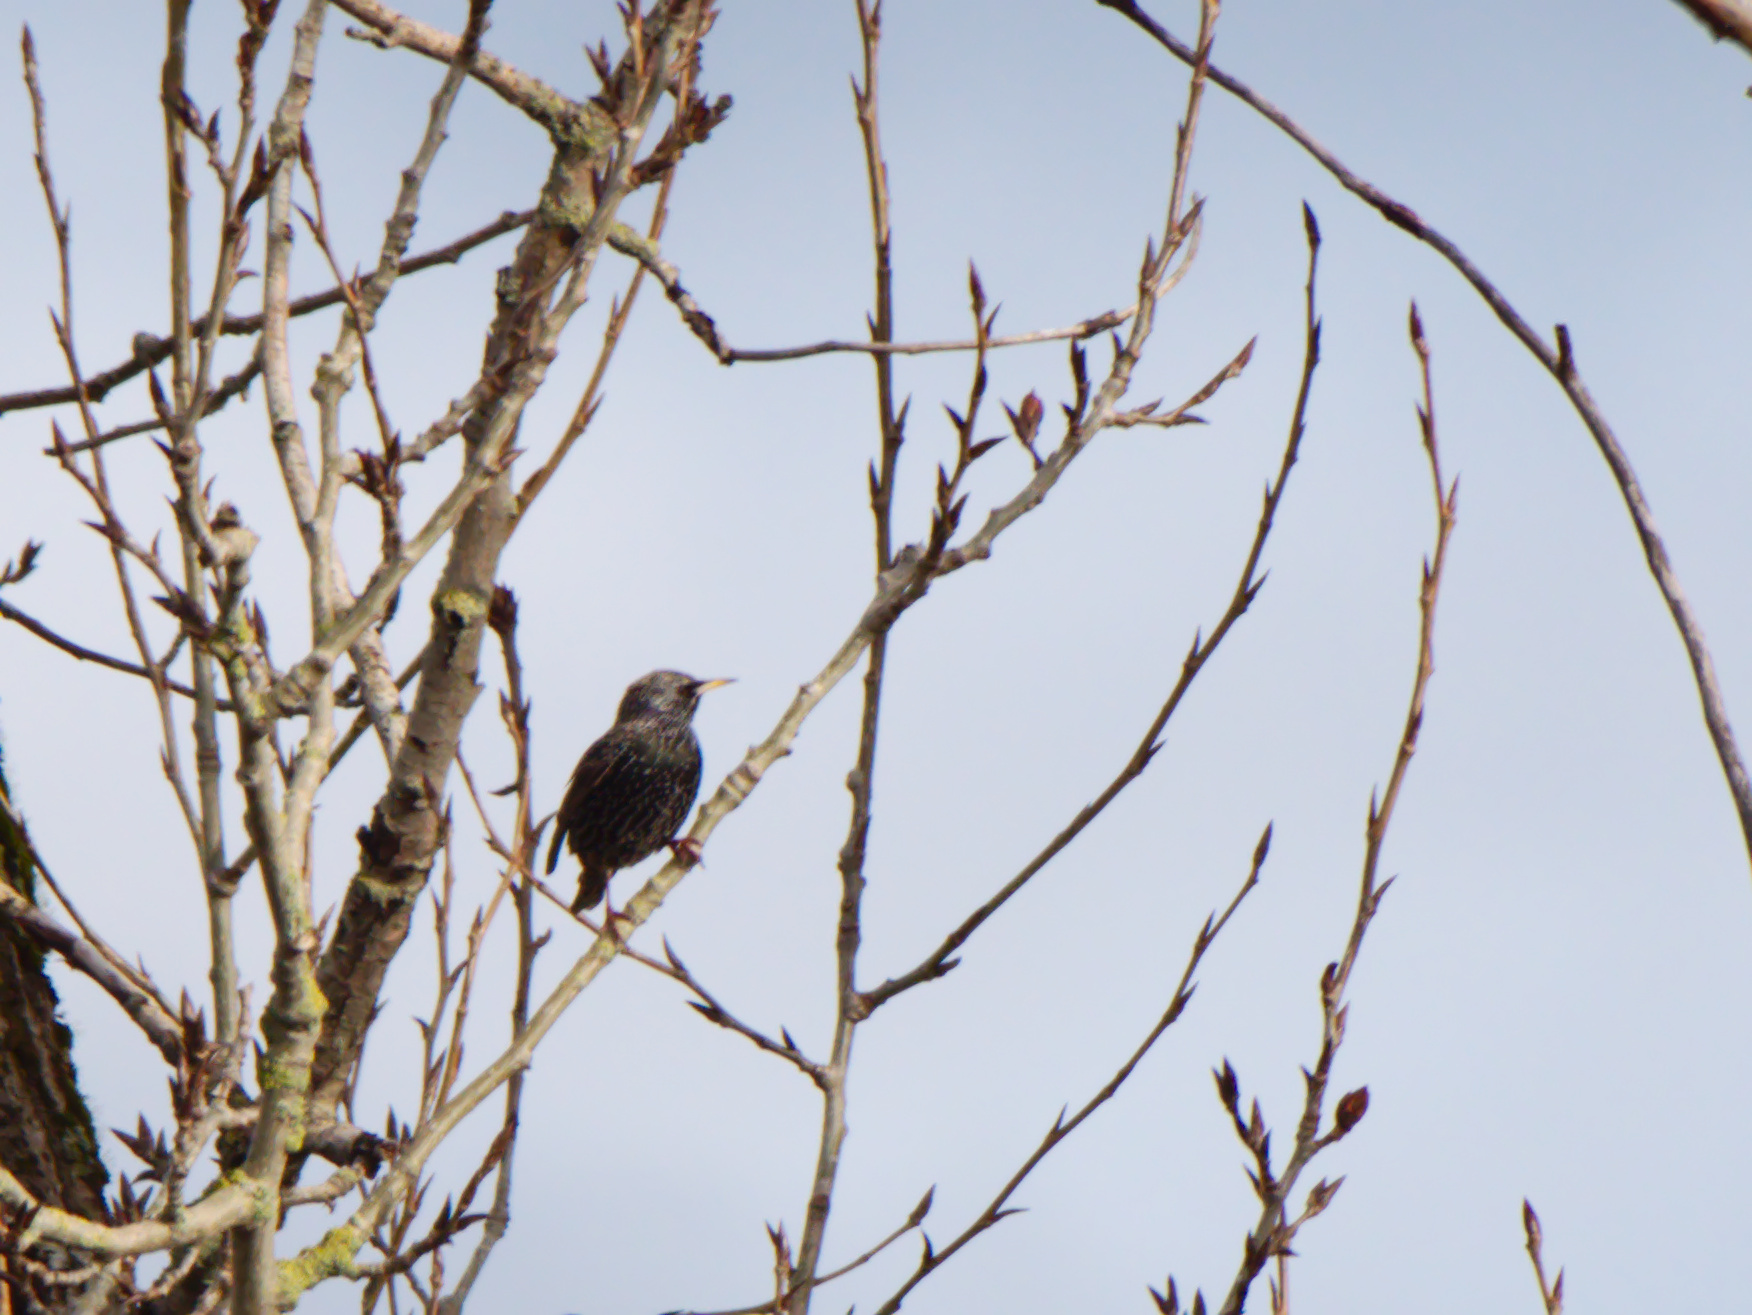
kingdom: Animalia
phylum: Chordata
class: Aves
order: Passeriformes
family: Sturnidae
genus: Sturnus
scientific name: Sturnus vulgaris
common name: Common starling
